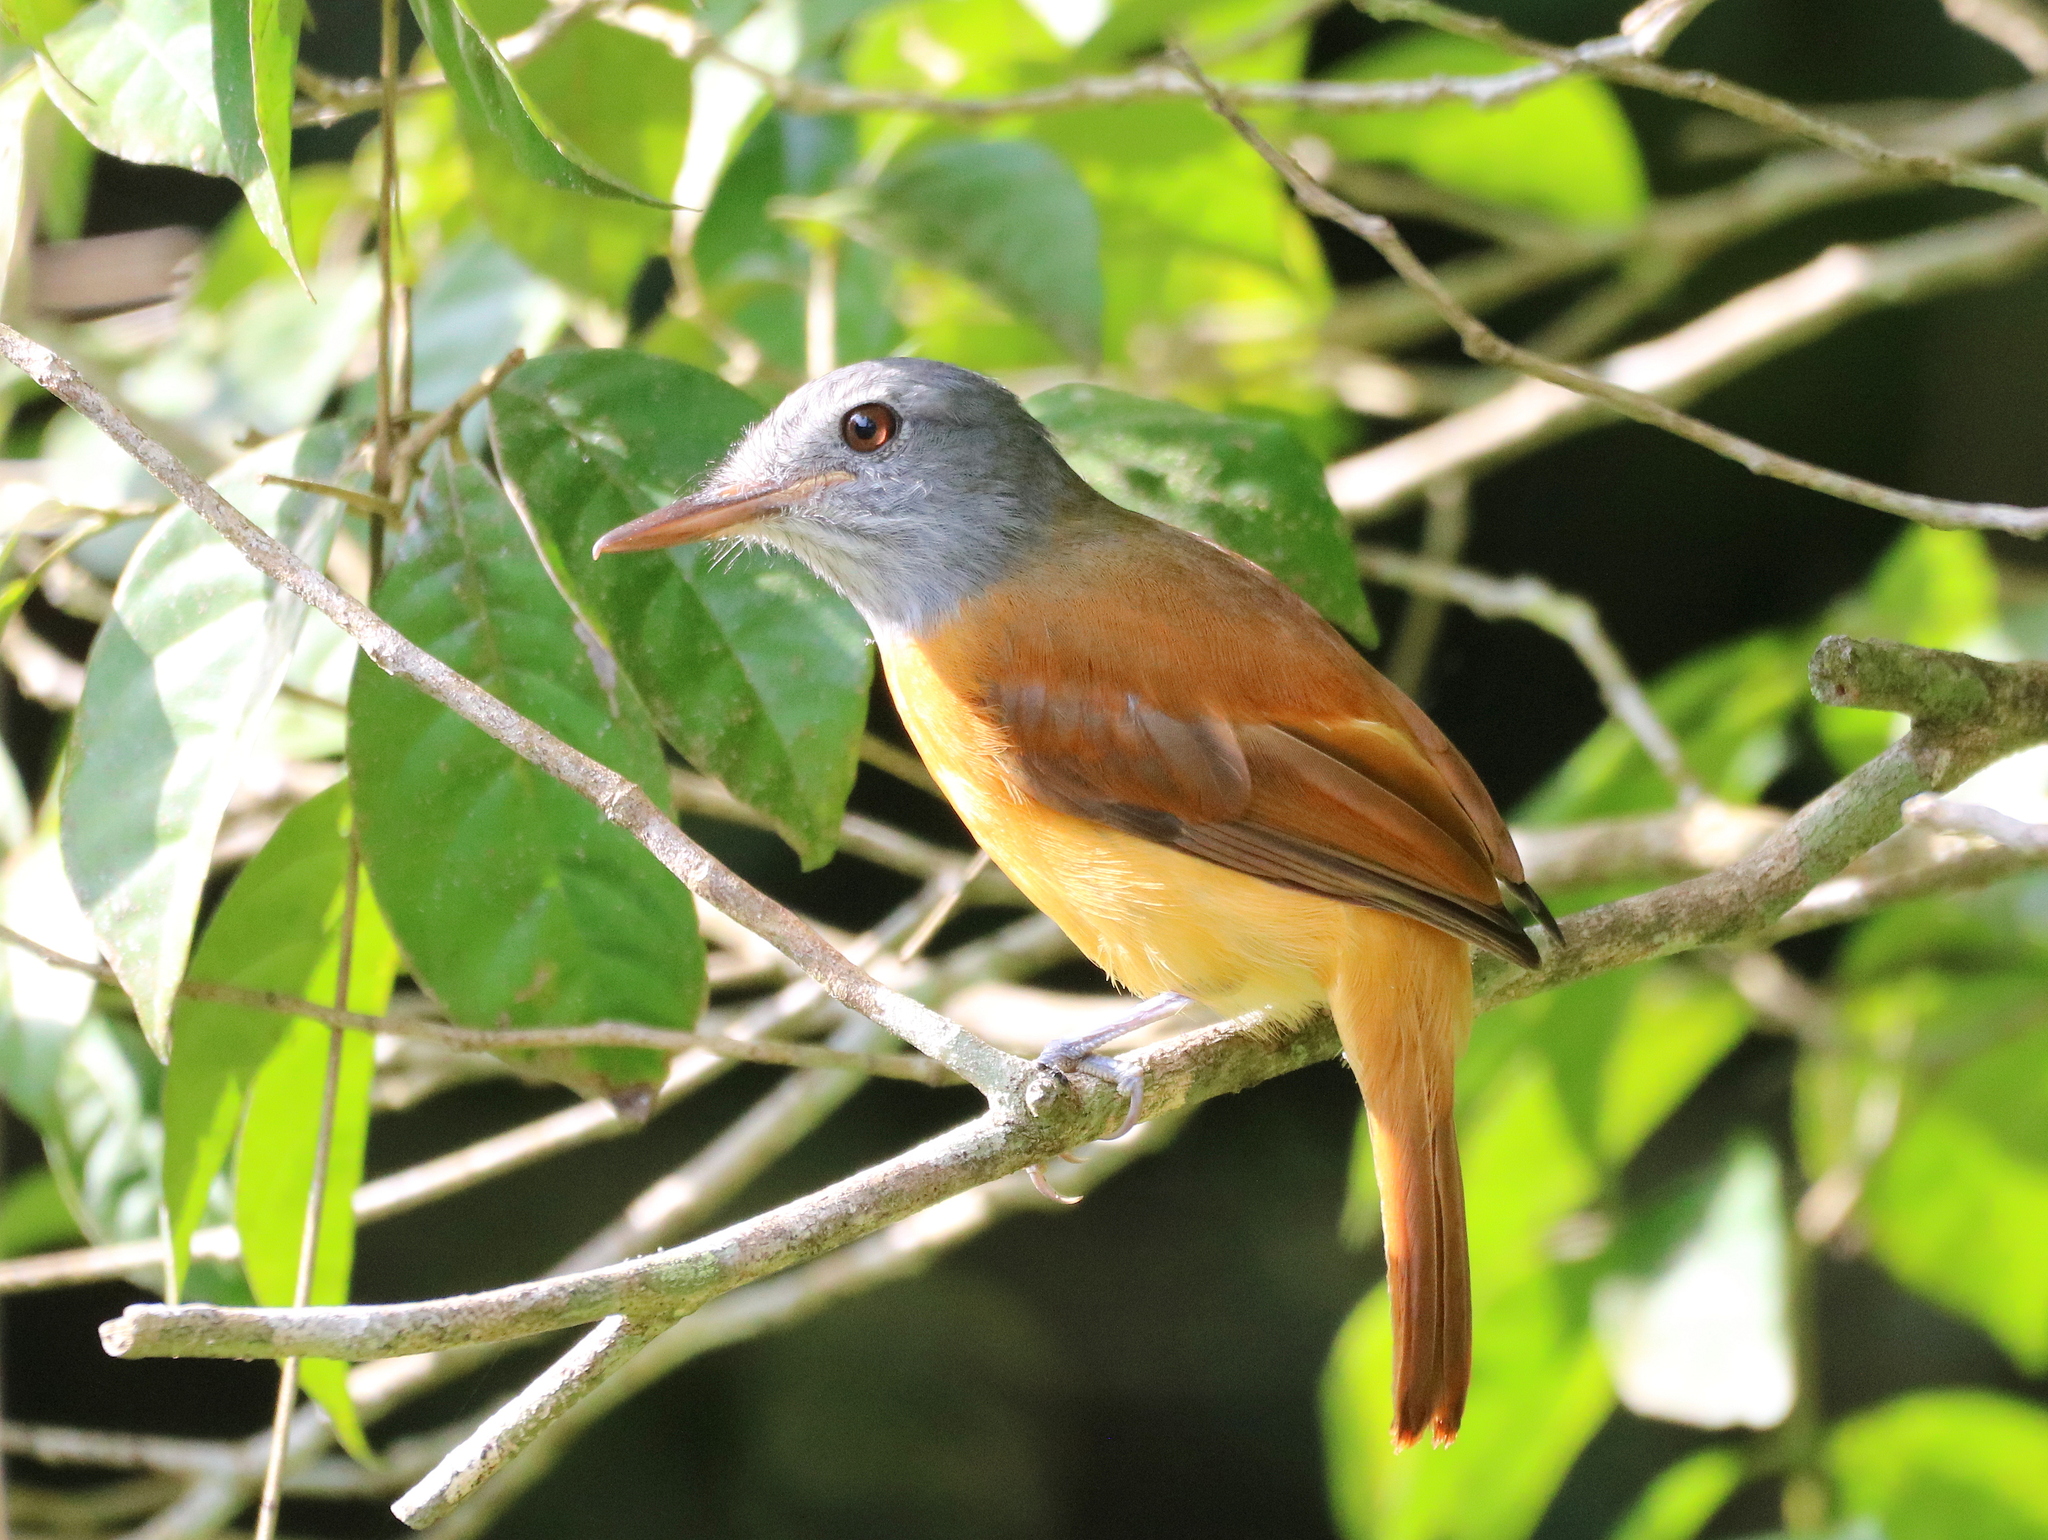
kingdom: Animalia
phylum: Chordata
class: Aves
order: Passeriformes
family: Tyrannidae
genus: Attila
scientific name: Attila rufus
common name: Grey-hooded attila
